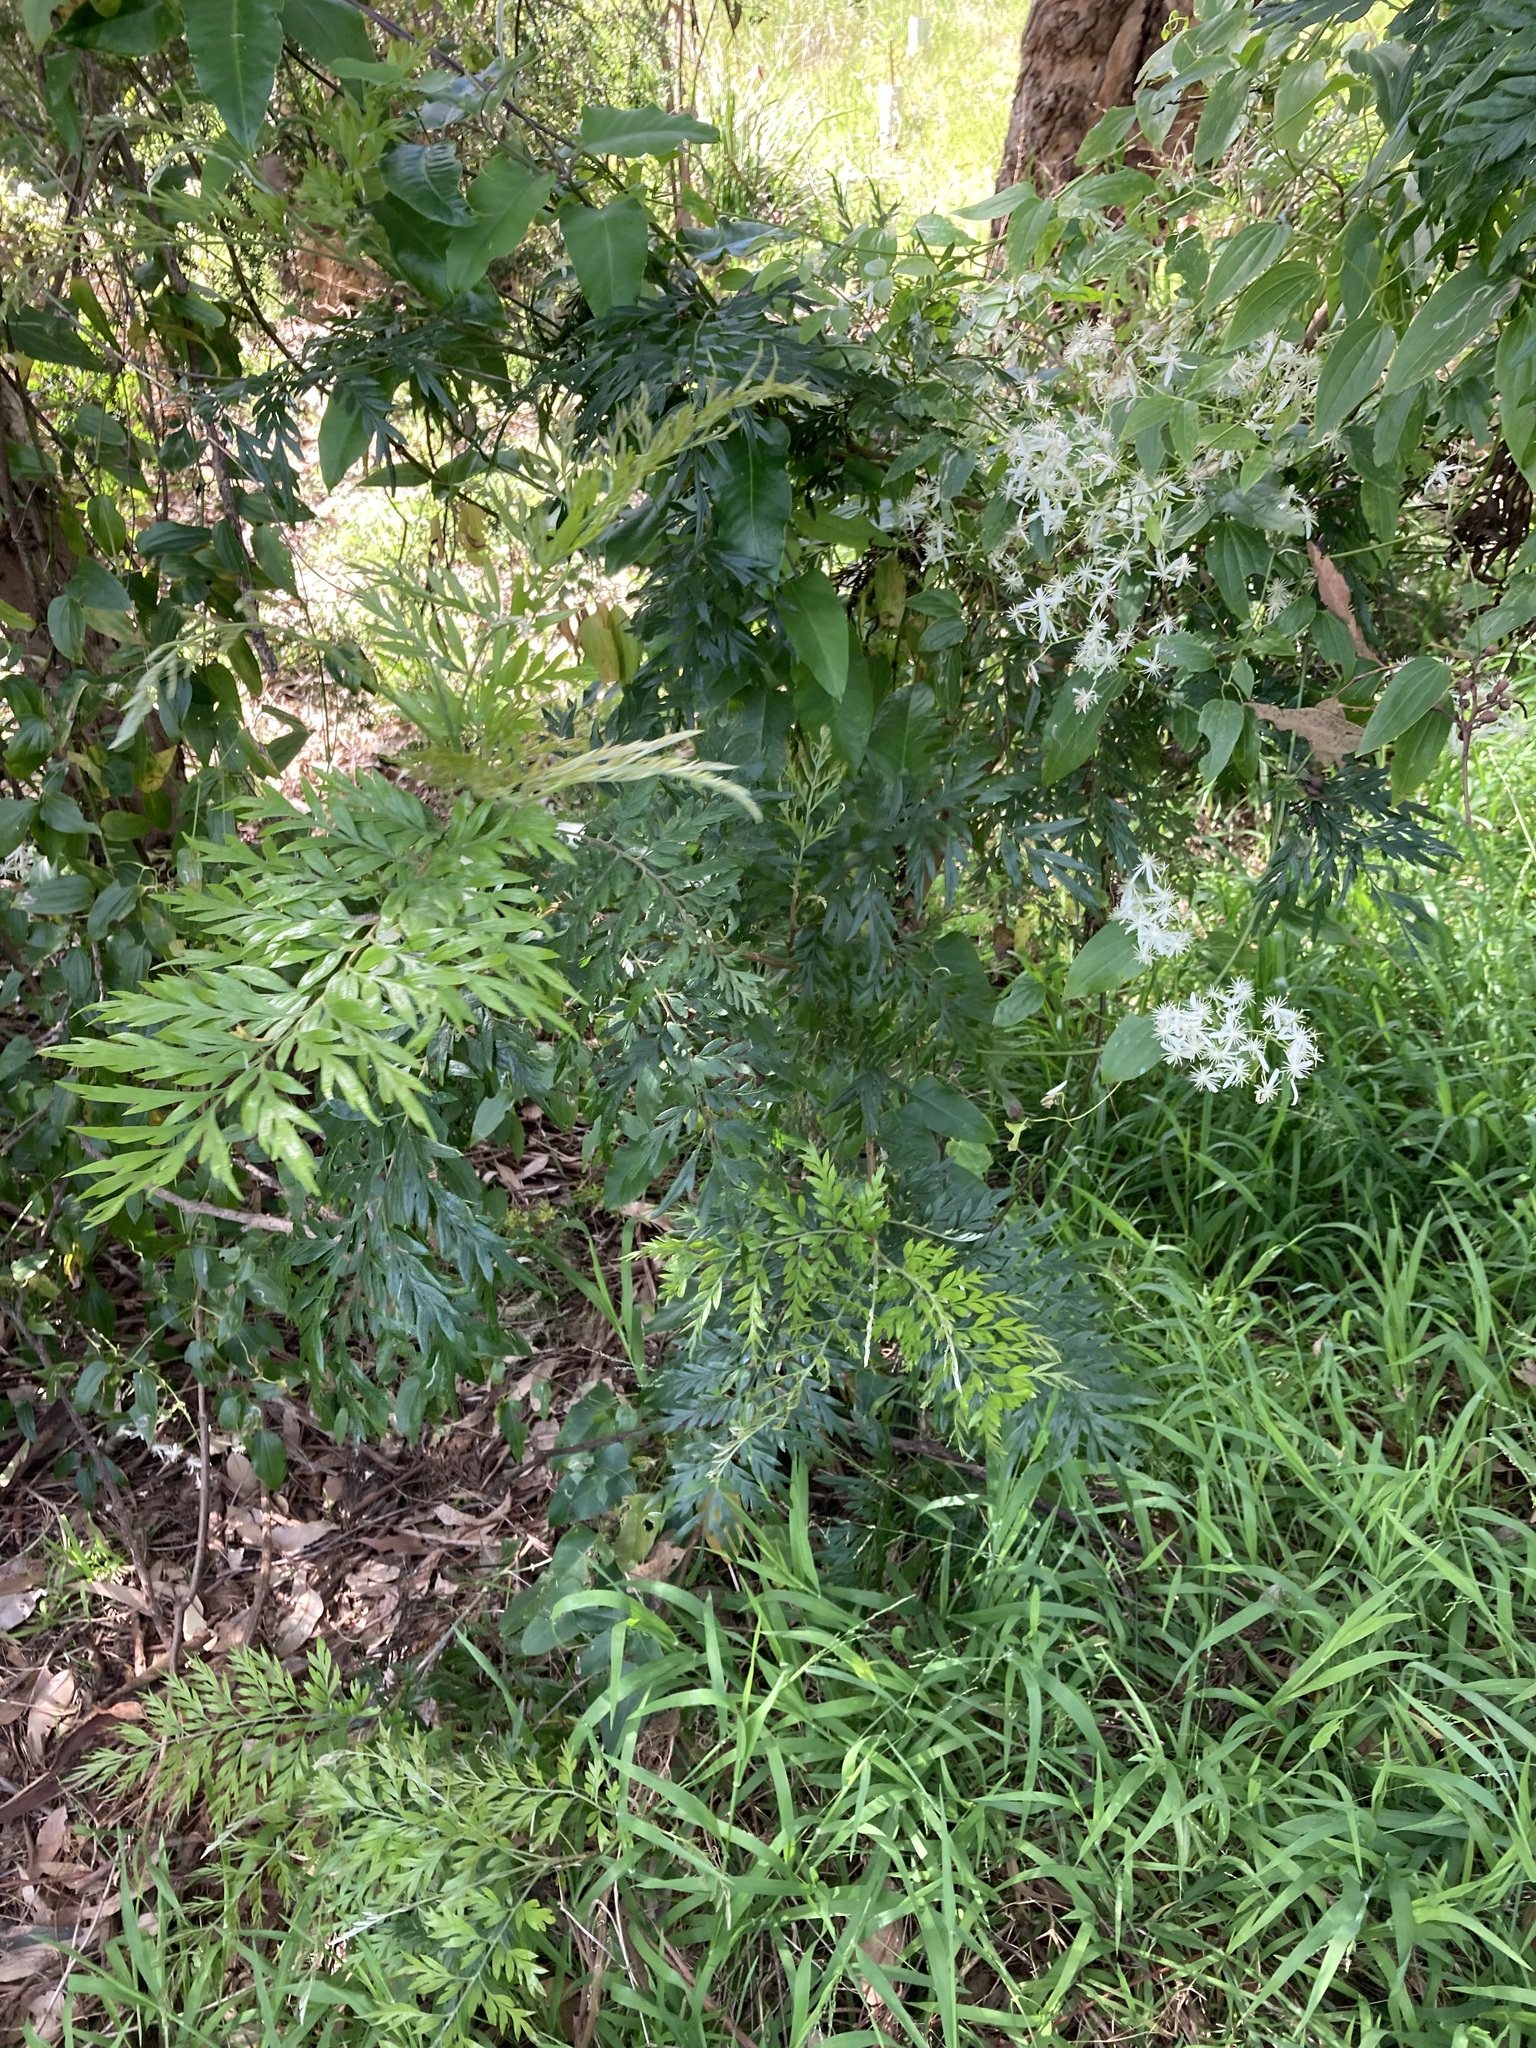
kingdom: Plantae
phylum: Tracheophyta
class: Magnoliopsida
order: Proteales
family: Proteaceae
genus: Grevillea
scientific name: Grevillea robusta
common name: Silkoak
